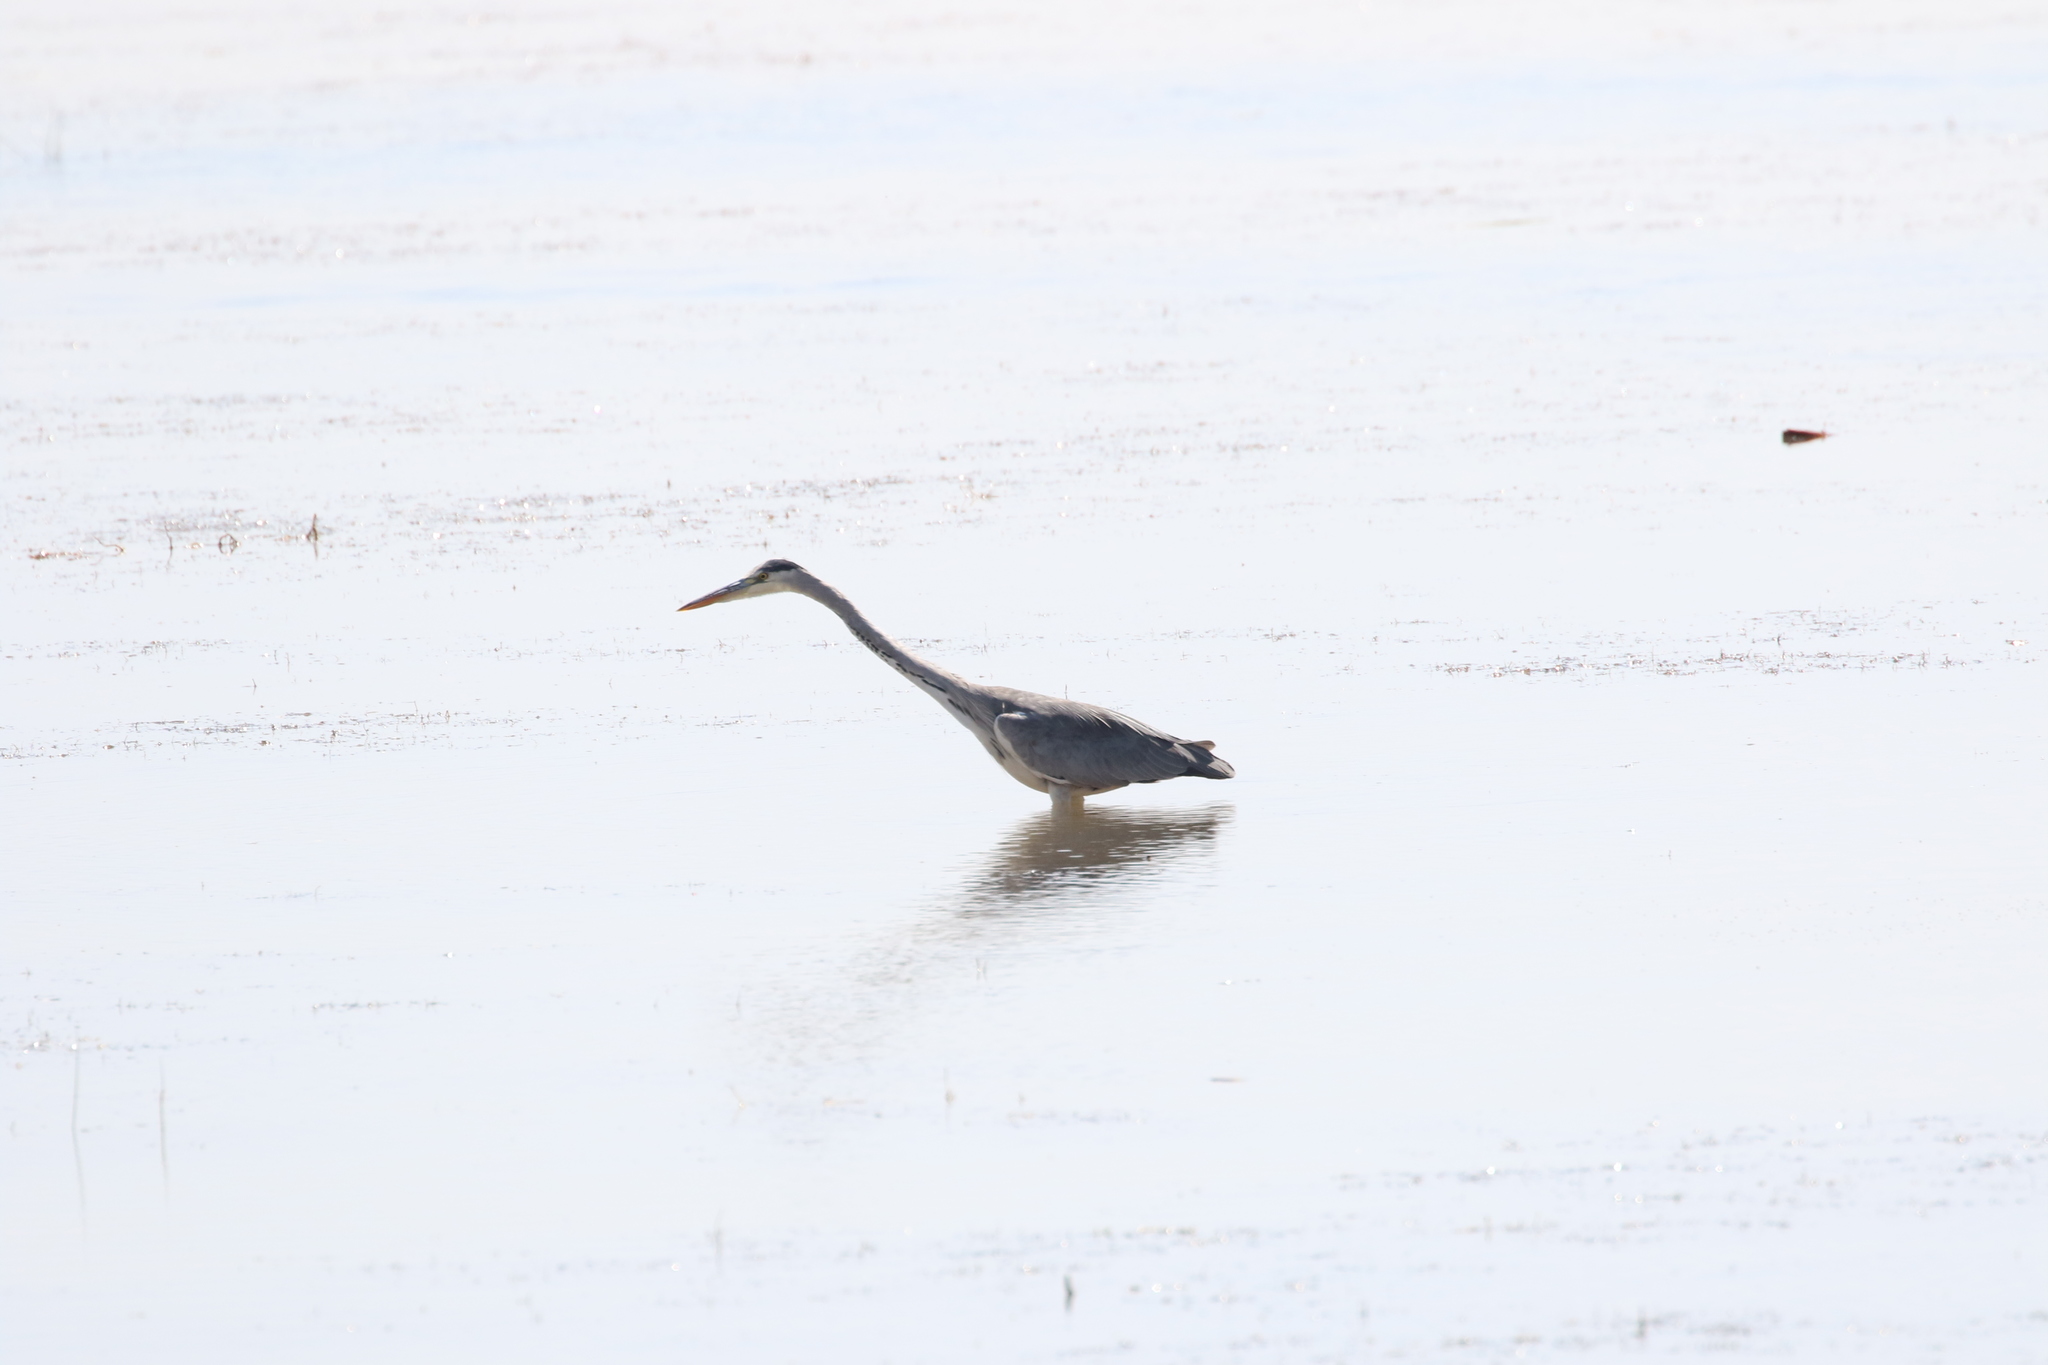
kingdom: Animalia
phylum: Chordata
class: Aves
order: Pelecaniformes
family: Ardeidae
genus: Ardea
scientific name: Ardea cinerea
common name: Grey heron
